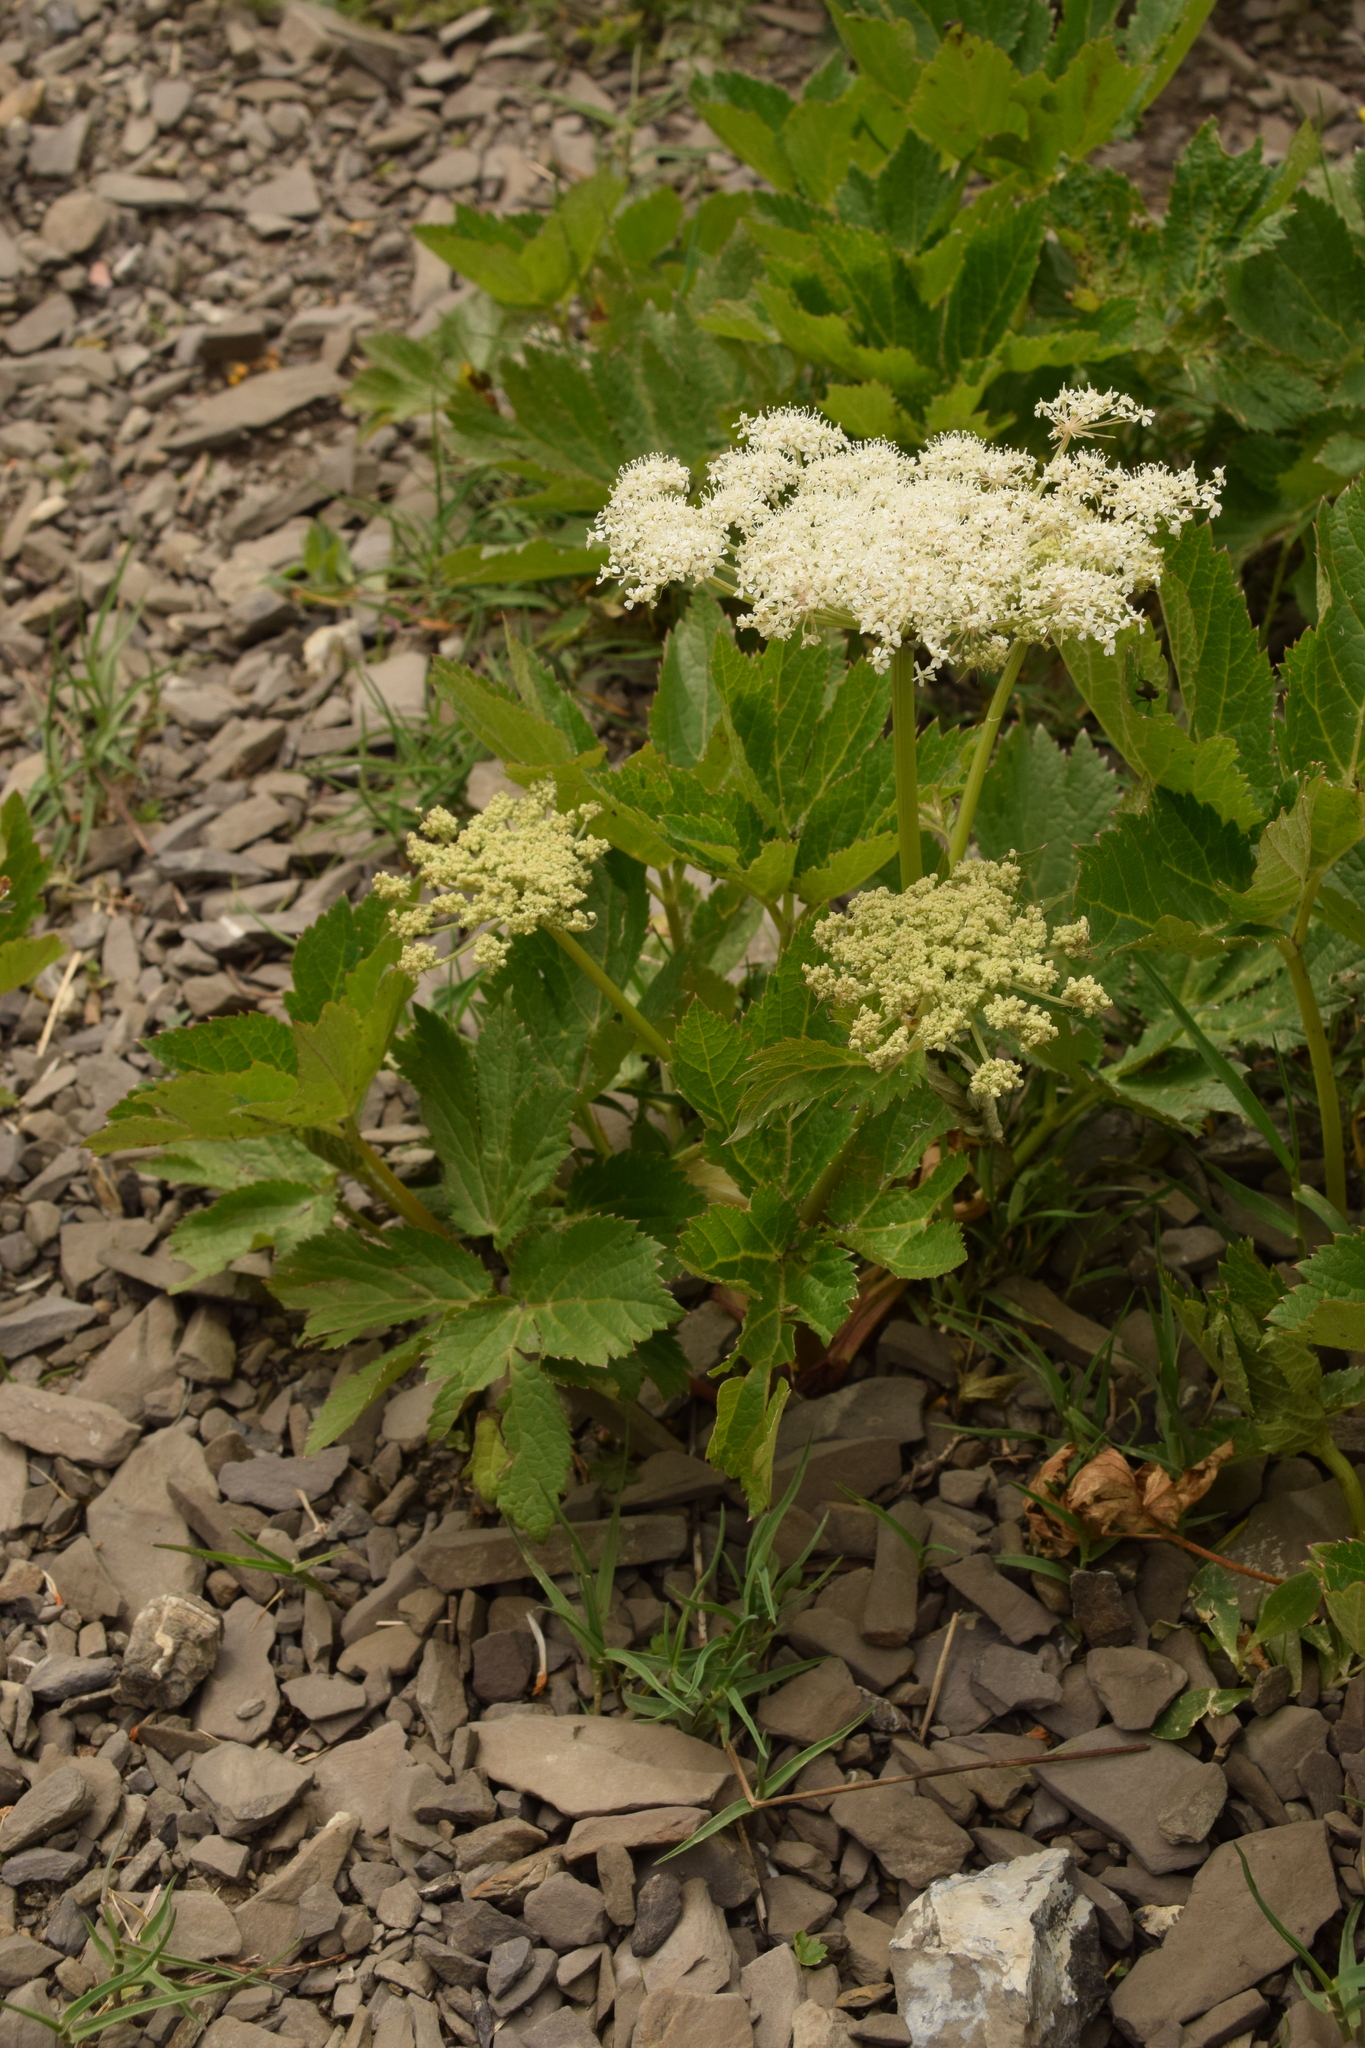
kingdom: Plantae
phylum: Tracheophyta
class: Magnoliopsida
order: Apiales
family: Apiaceae
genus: Imperatoria
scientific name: Imperatoria ostruthium
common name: Masterwort
